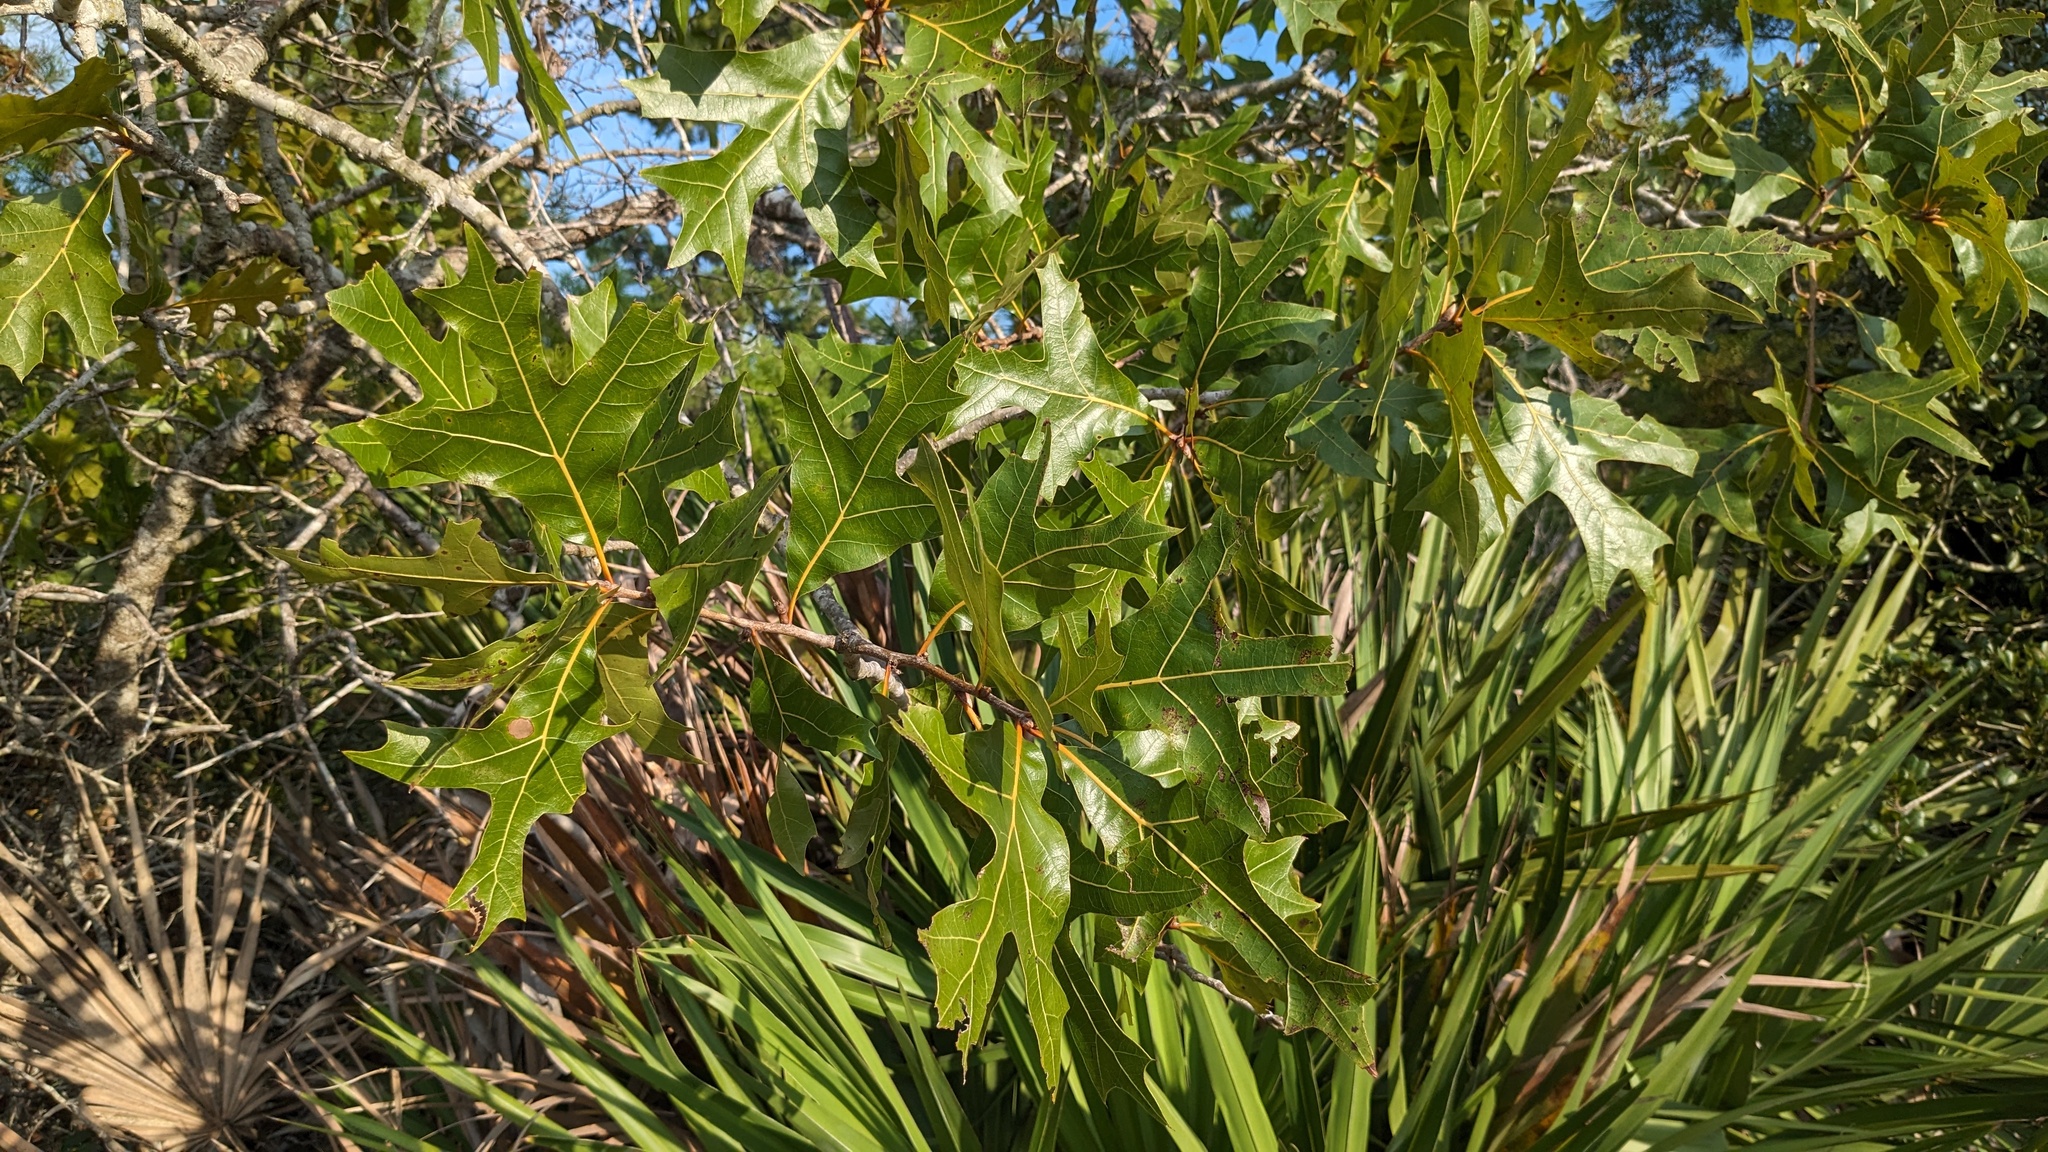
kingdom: Plantae
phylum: Tracheophyta
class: Magnoliopsida
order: Fagales
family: Fagaceae
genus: Quercus
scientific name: Quercus laevis
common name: Turkey oak
